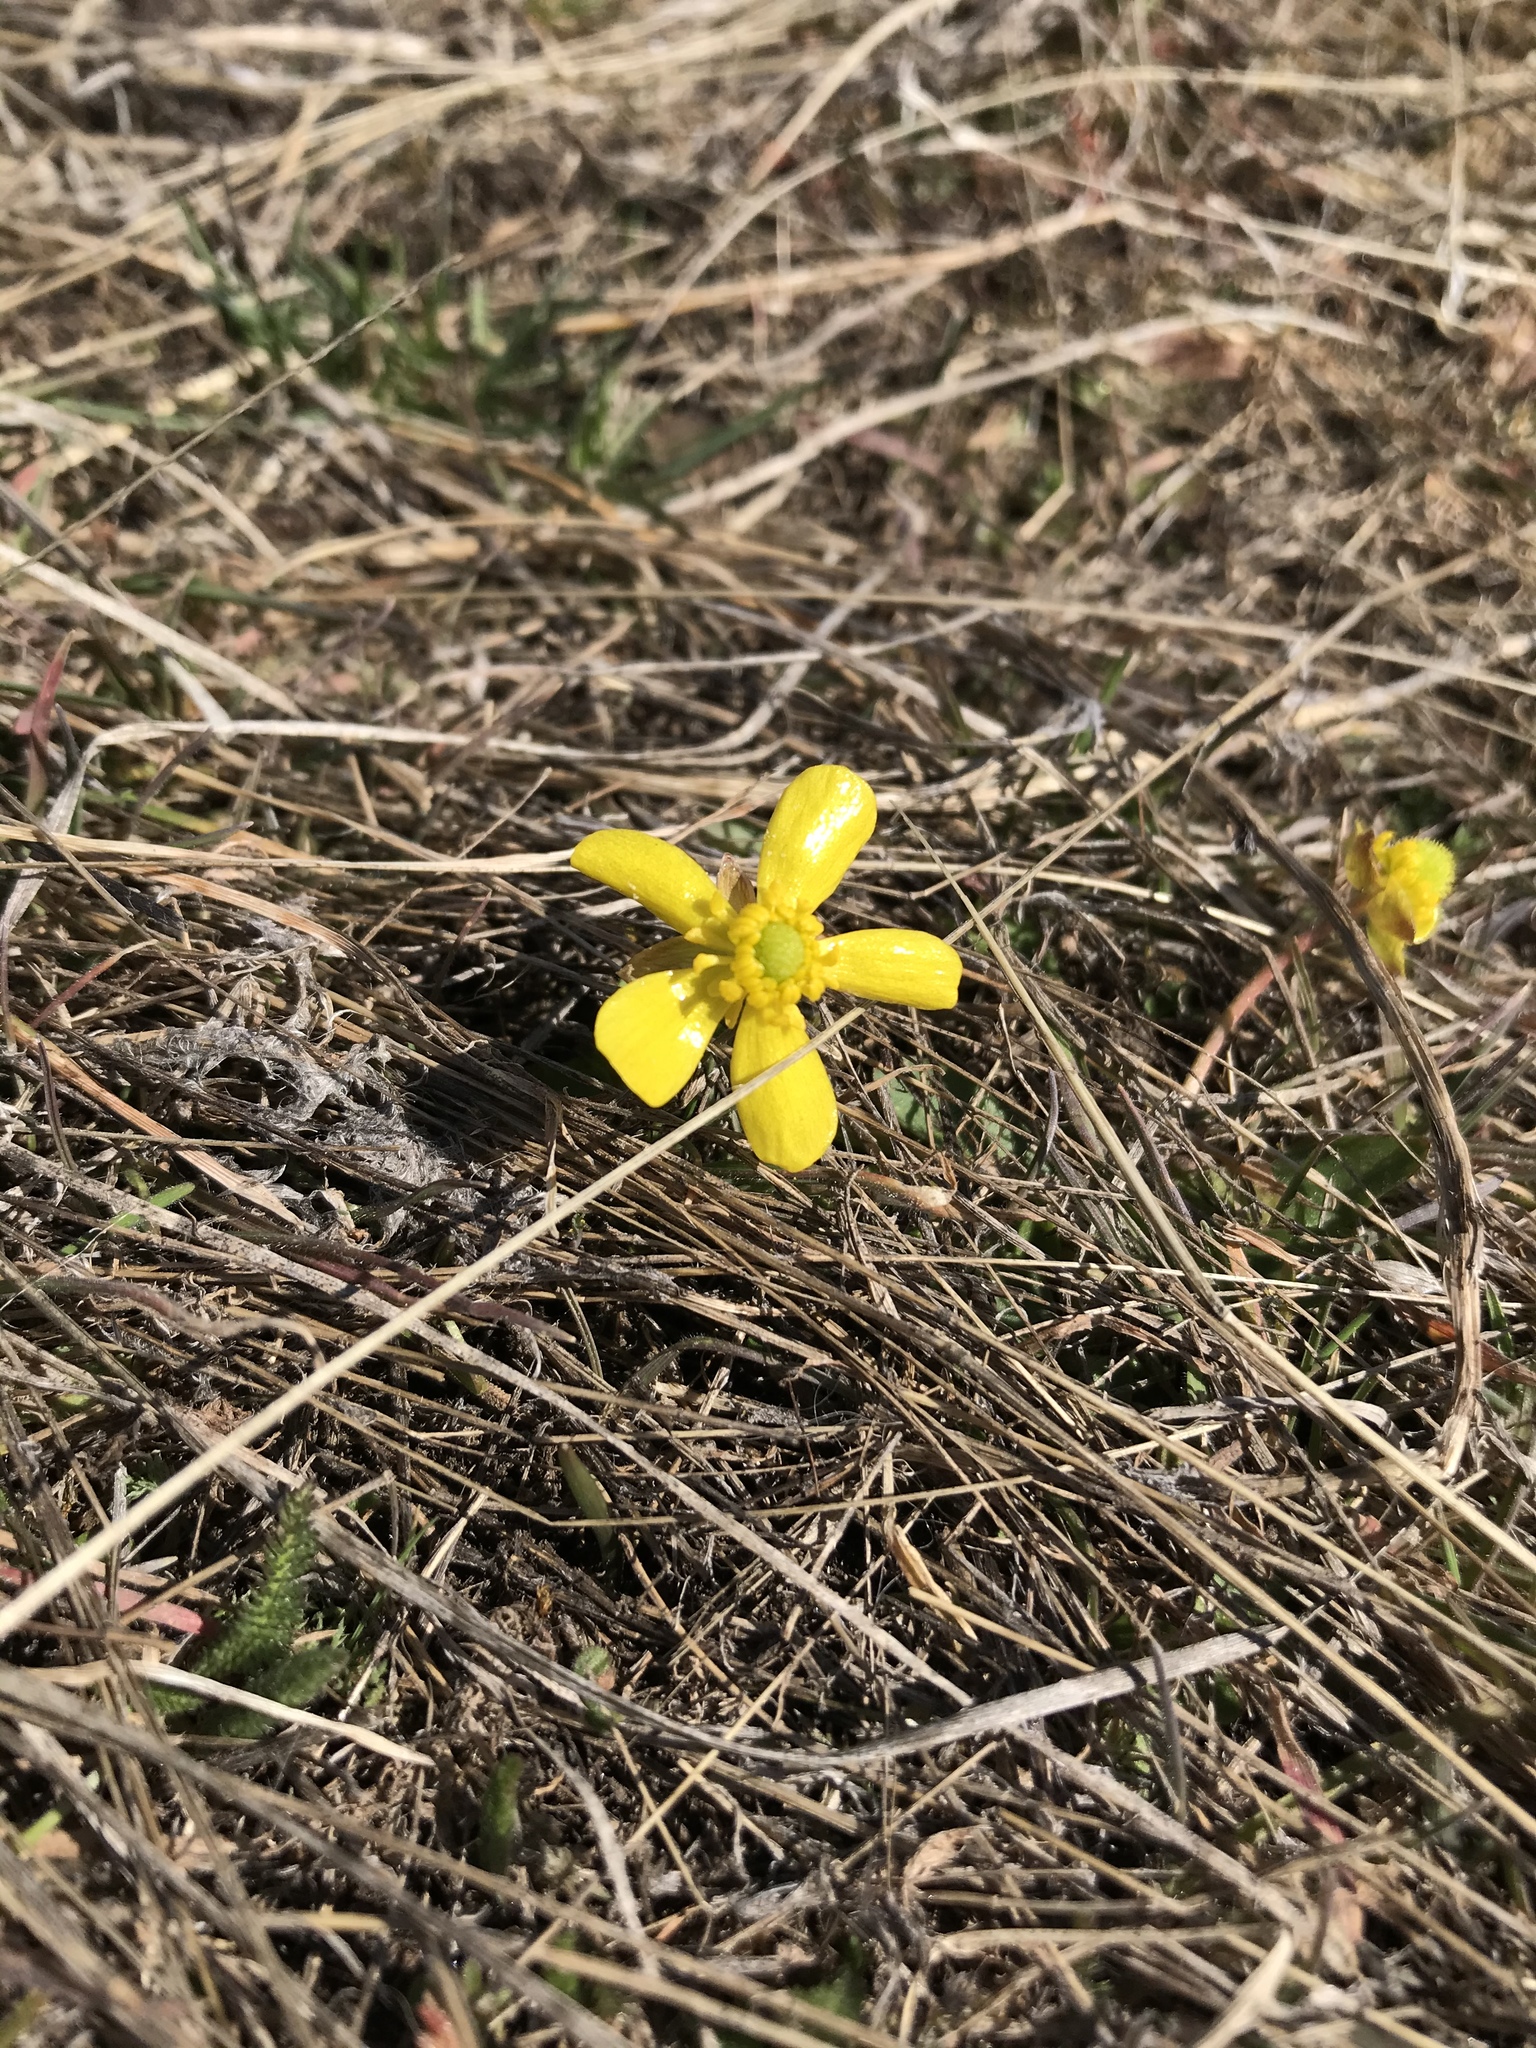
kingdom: Plantae
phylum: Tracheophyta
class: Magnoliopsida
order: Ranunculales
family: Ranunculaceae
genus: Ranunculus
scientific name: Ranunculus glaberrimus
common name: Sagebrush buttercup
